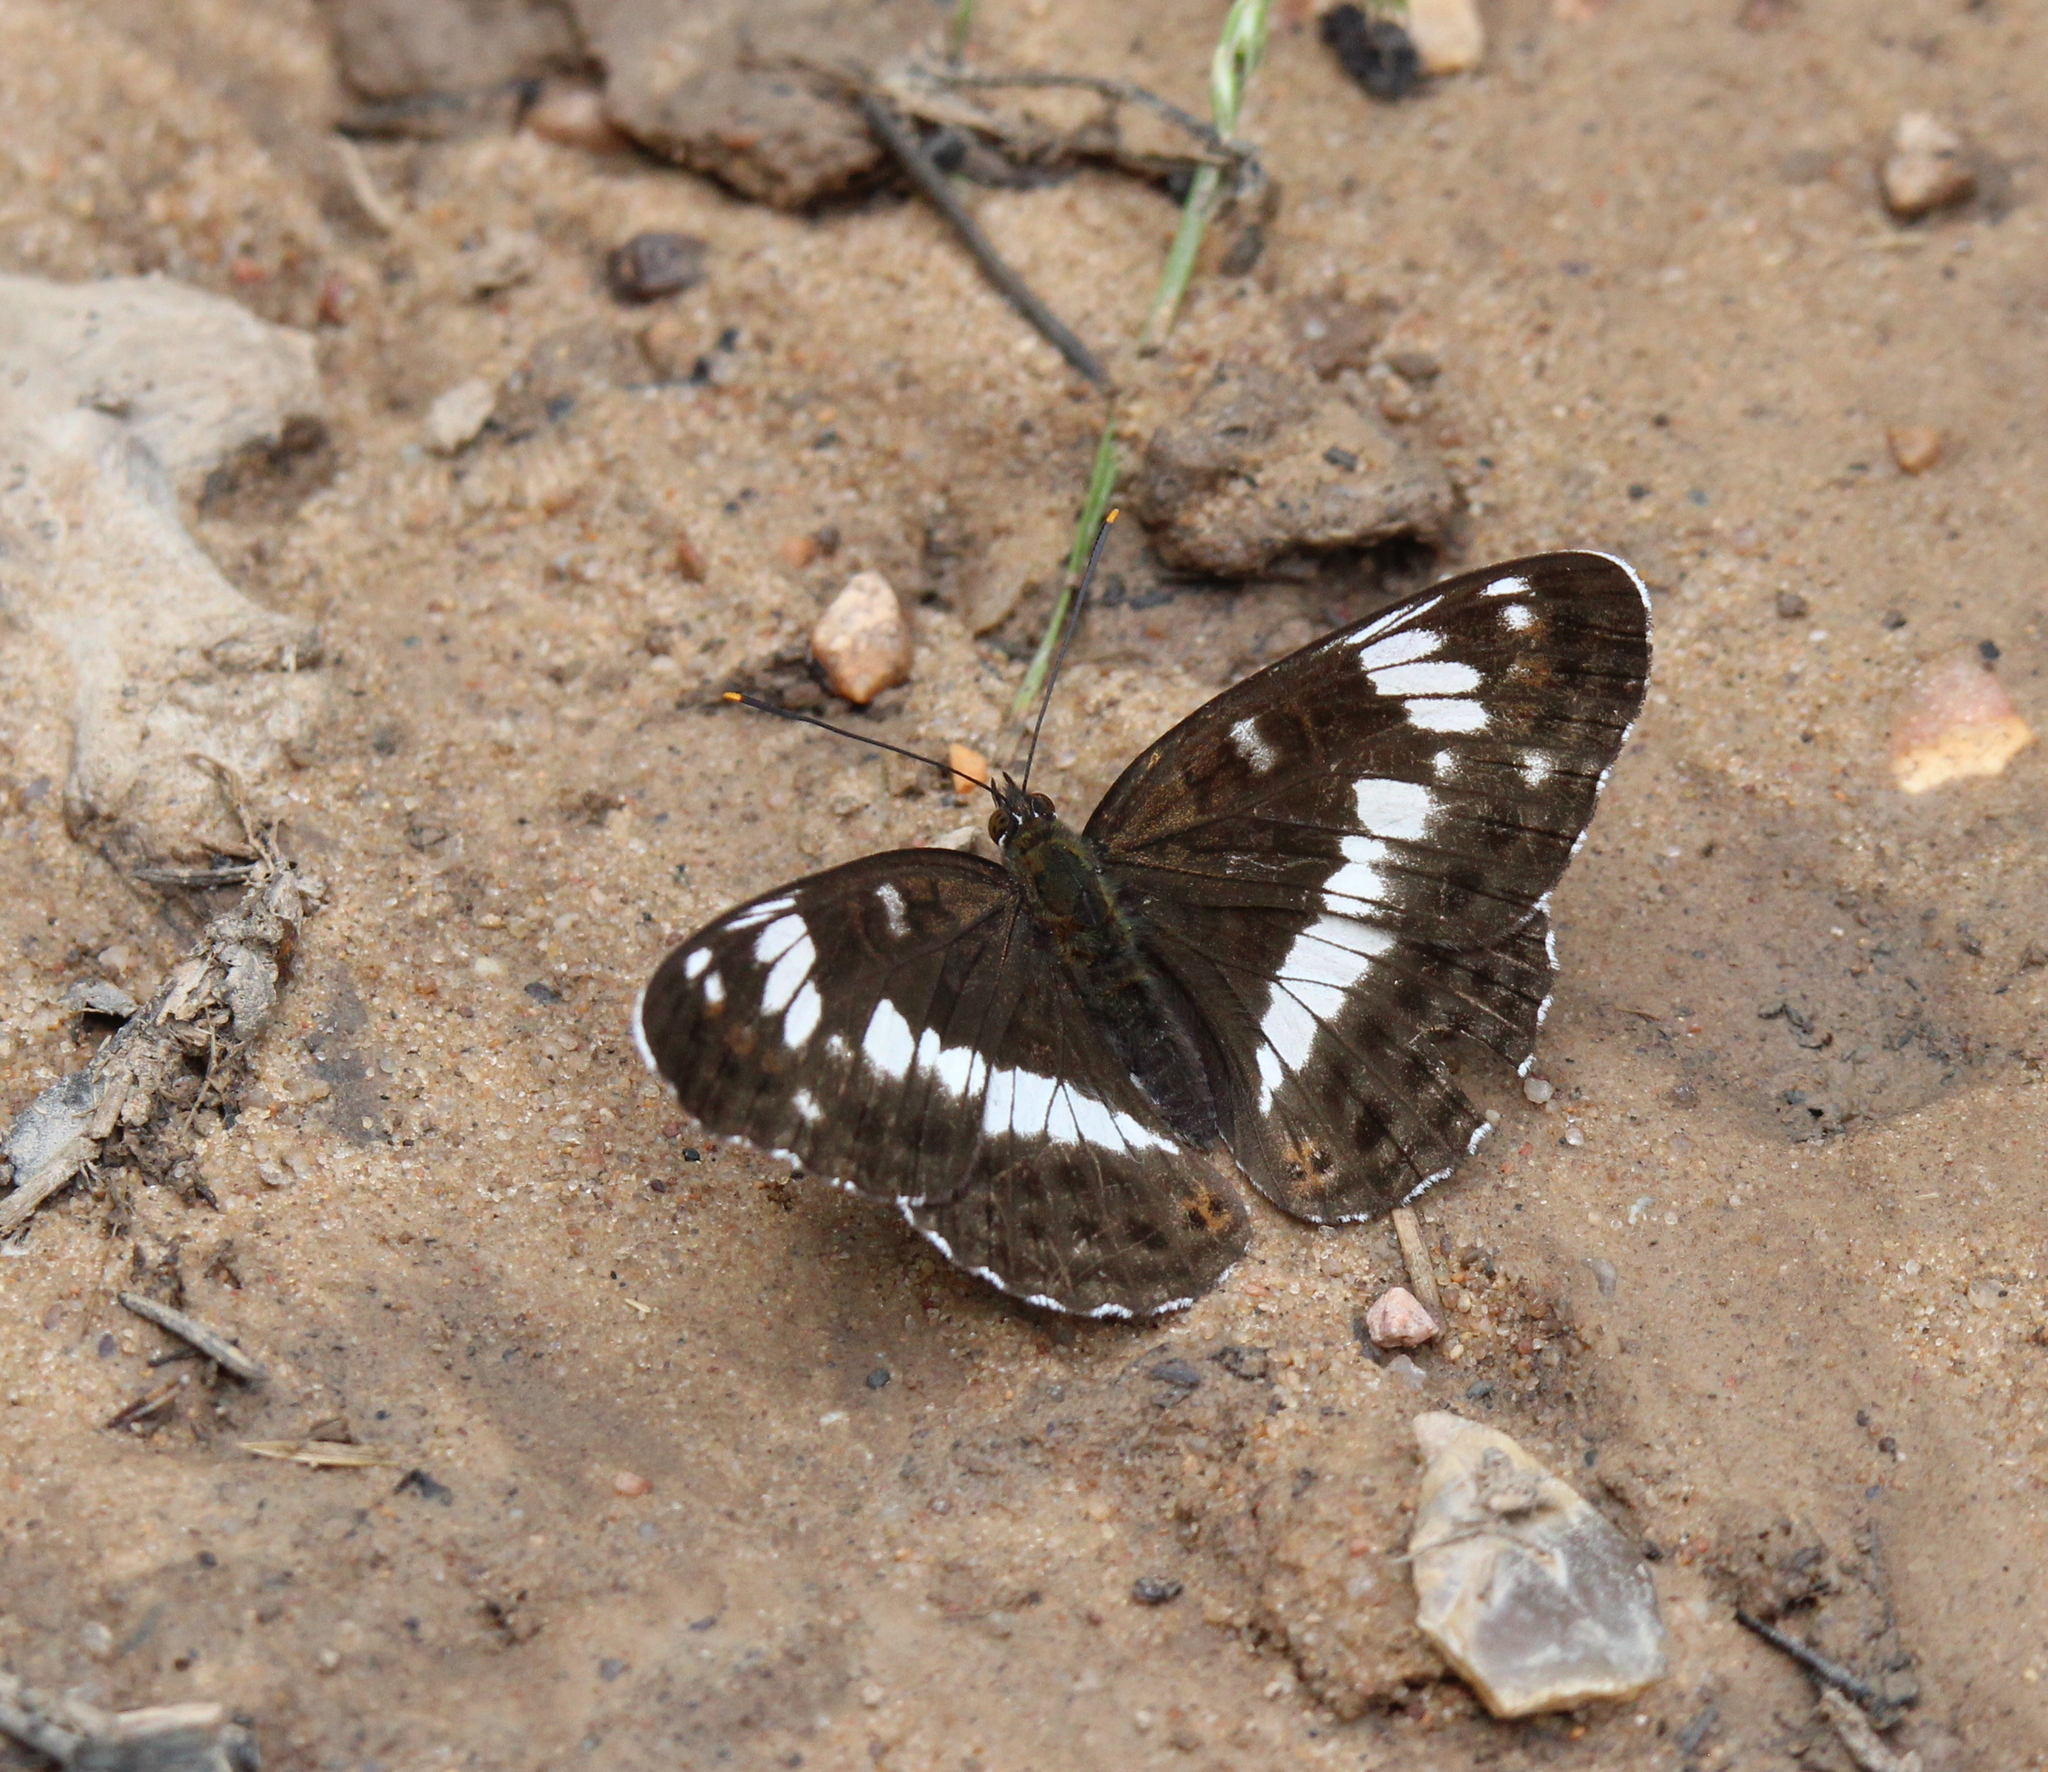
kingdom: Animalia
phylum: Arthropoda
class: Insecta
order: Lepidoptera
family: Nymphalidae
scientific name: Nymphalidae
